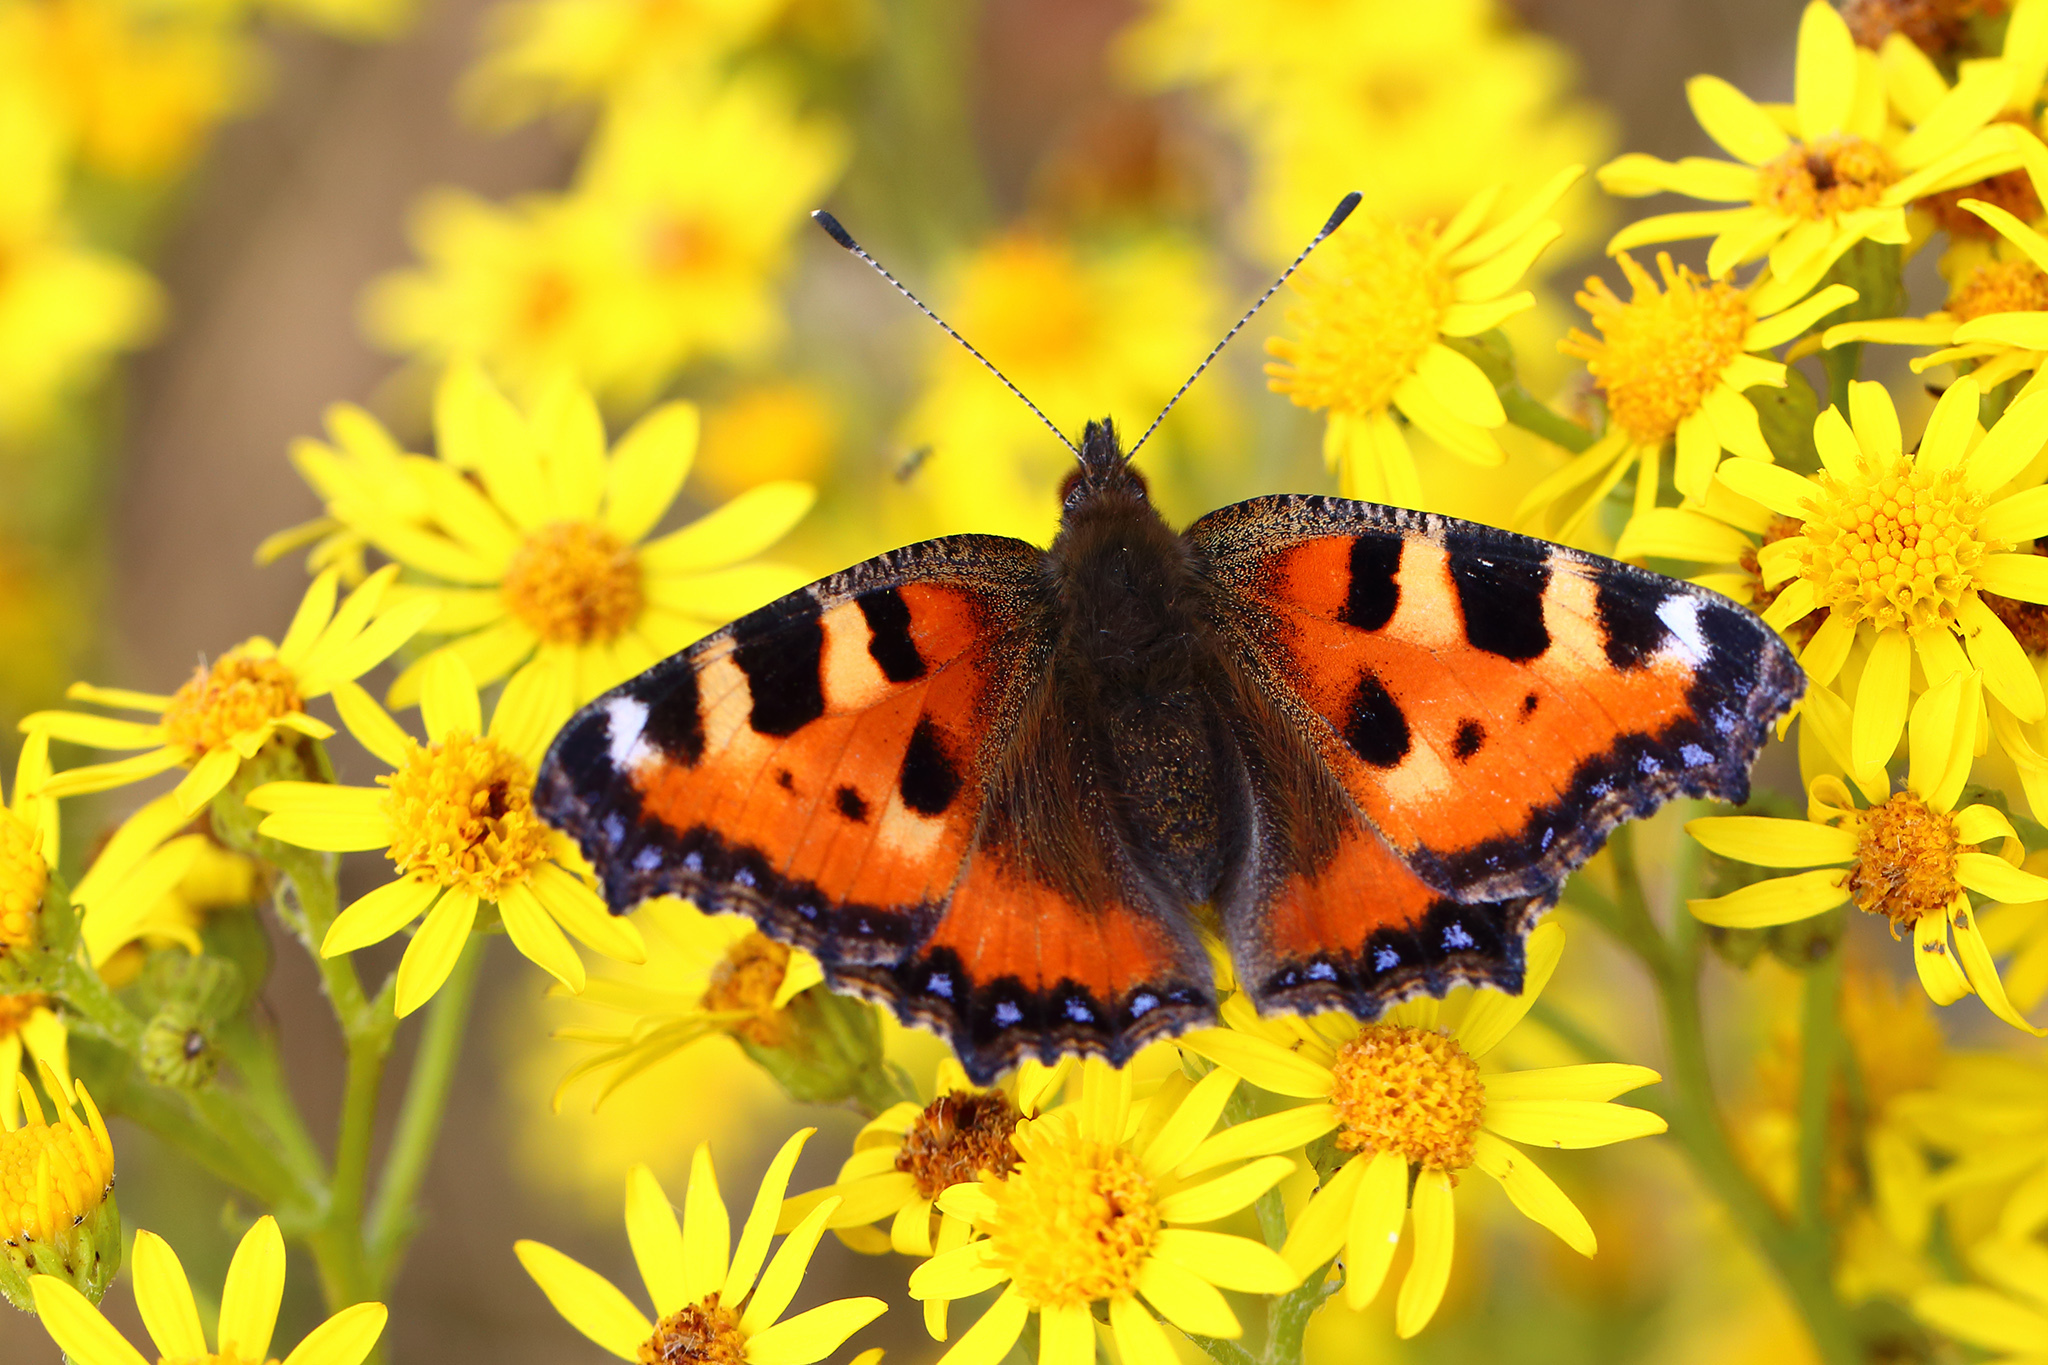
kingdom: Animalia
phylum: Arthropoda
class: Insecta
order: Lepidoptera
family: Nymphalidae
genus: Aglais
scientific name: Aglais urticae
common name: Small tortoiseshell
